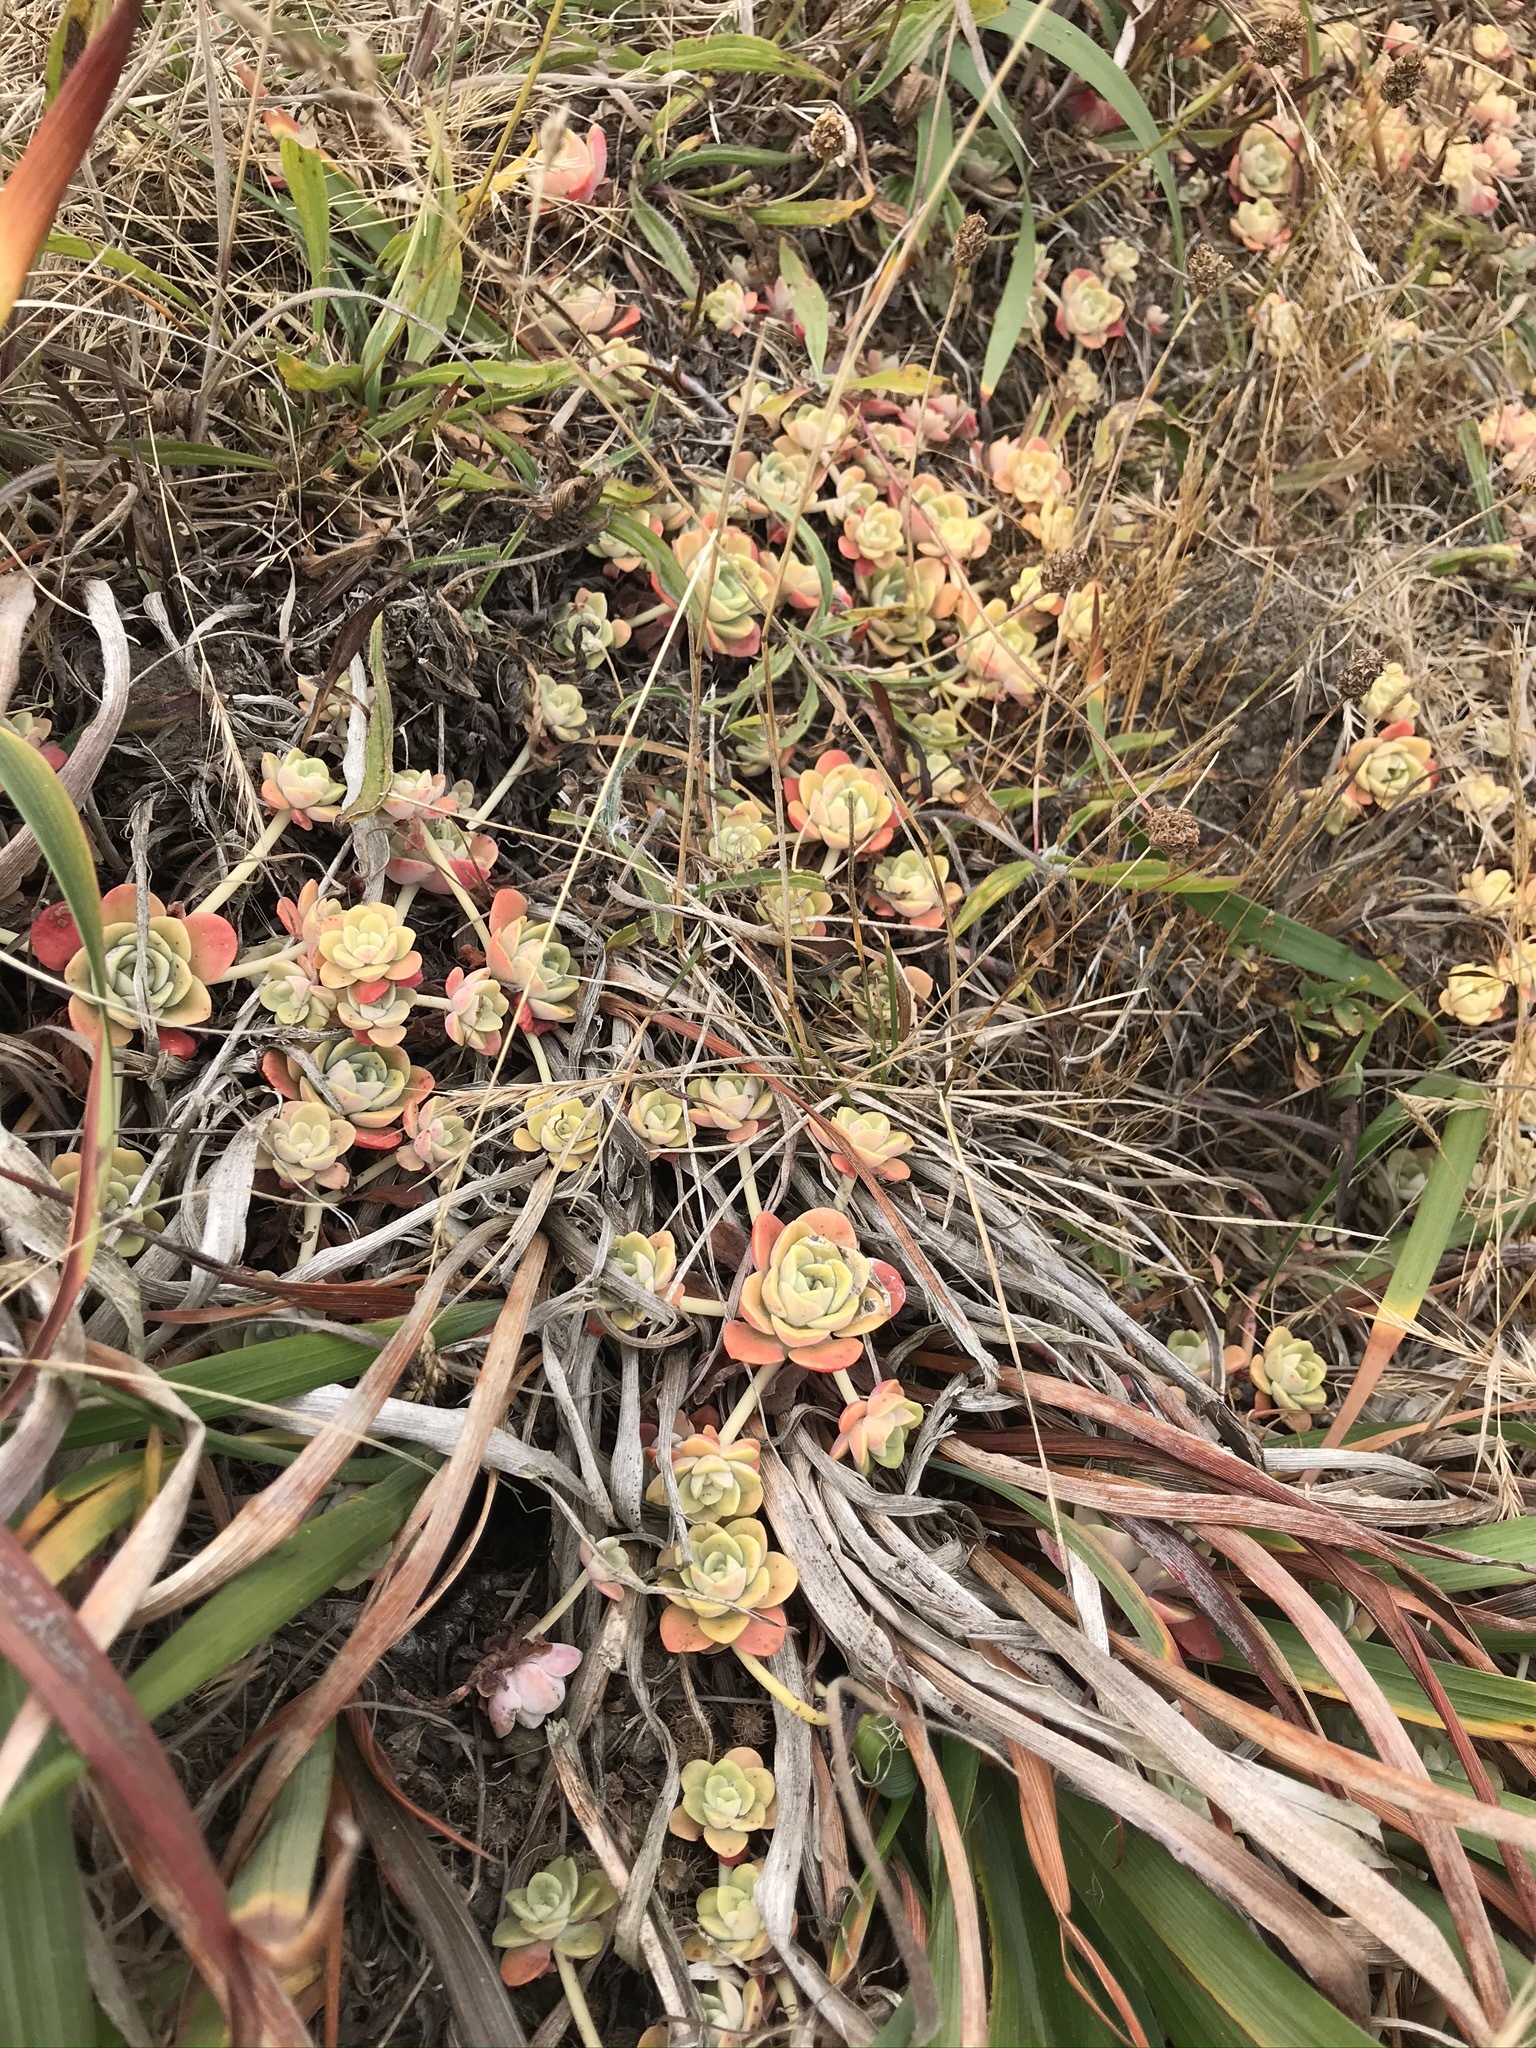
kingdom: Plantae
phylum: Tracheophyta
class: Magnoliopsida
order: Saxifragales
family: Crassulaceae
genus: Sedum
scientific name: Sedum spathulifolium
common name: Colorado stonecrop
